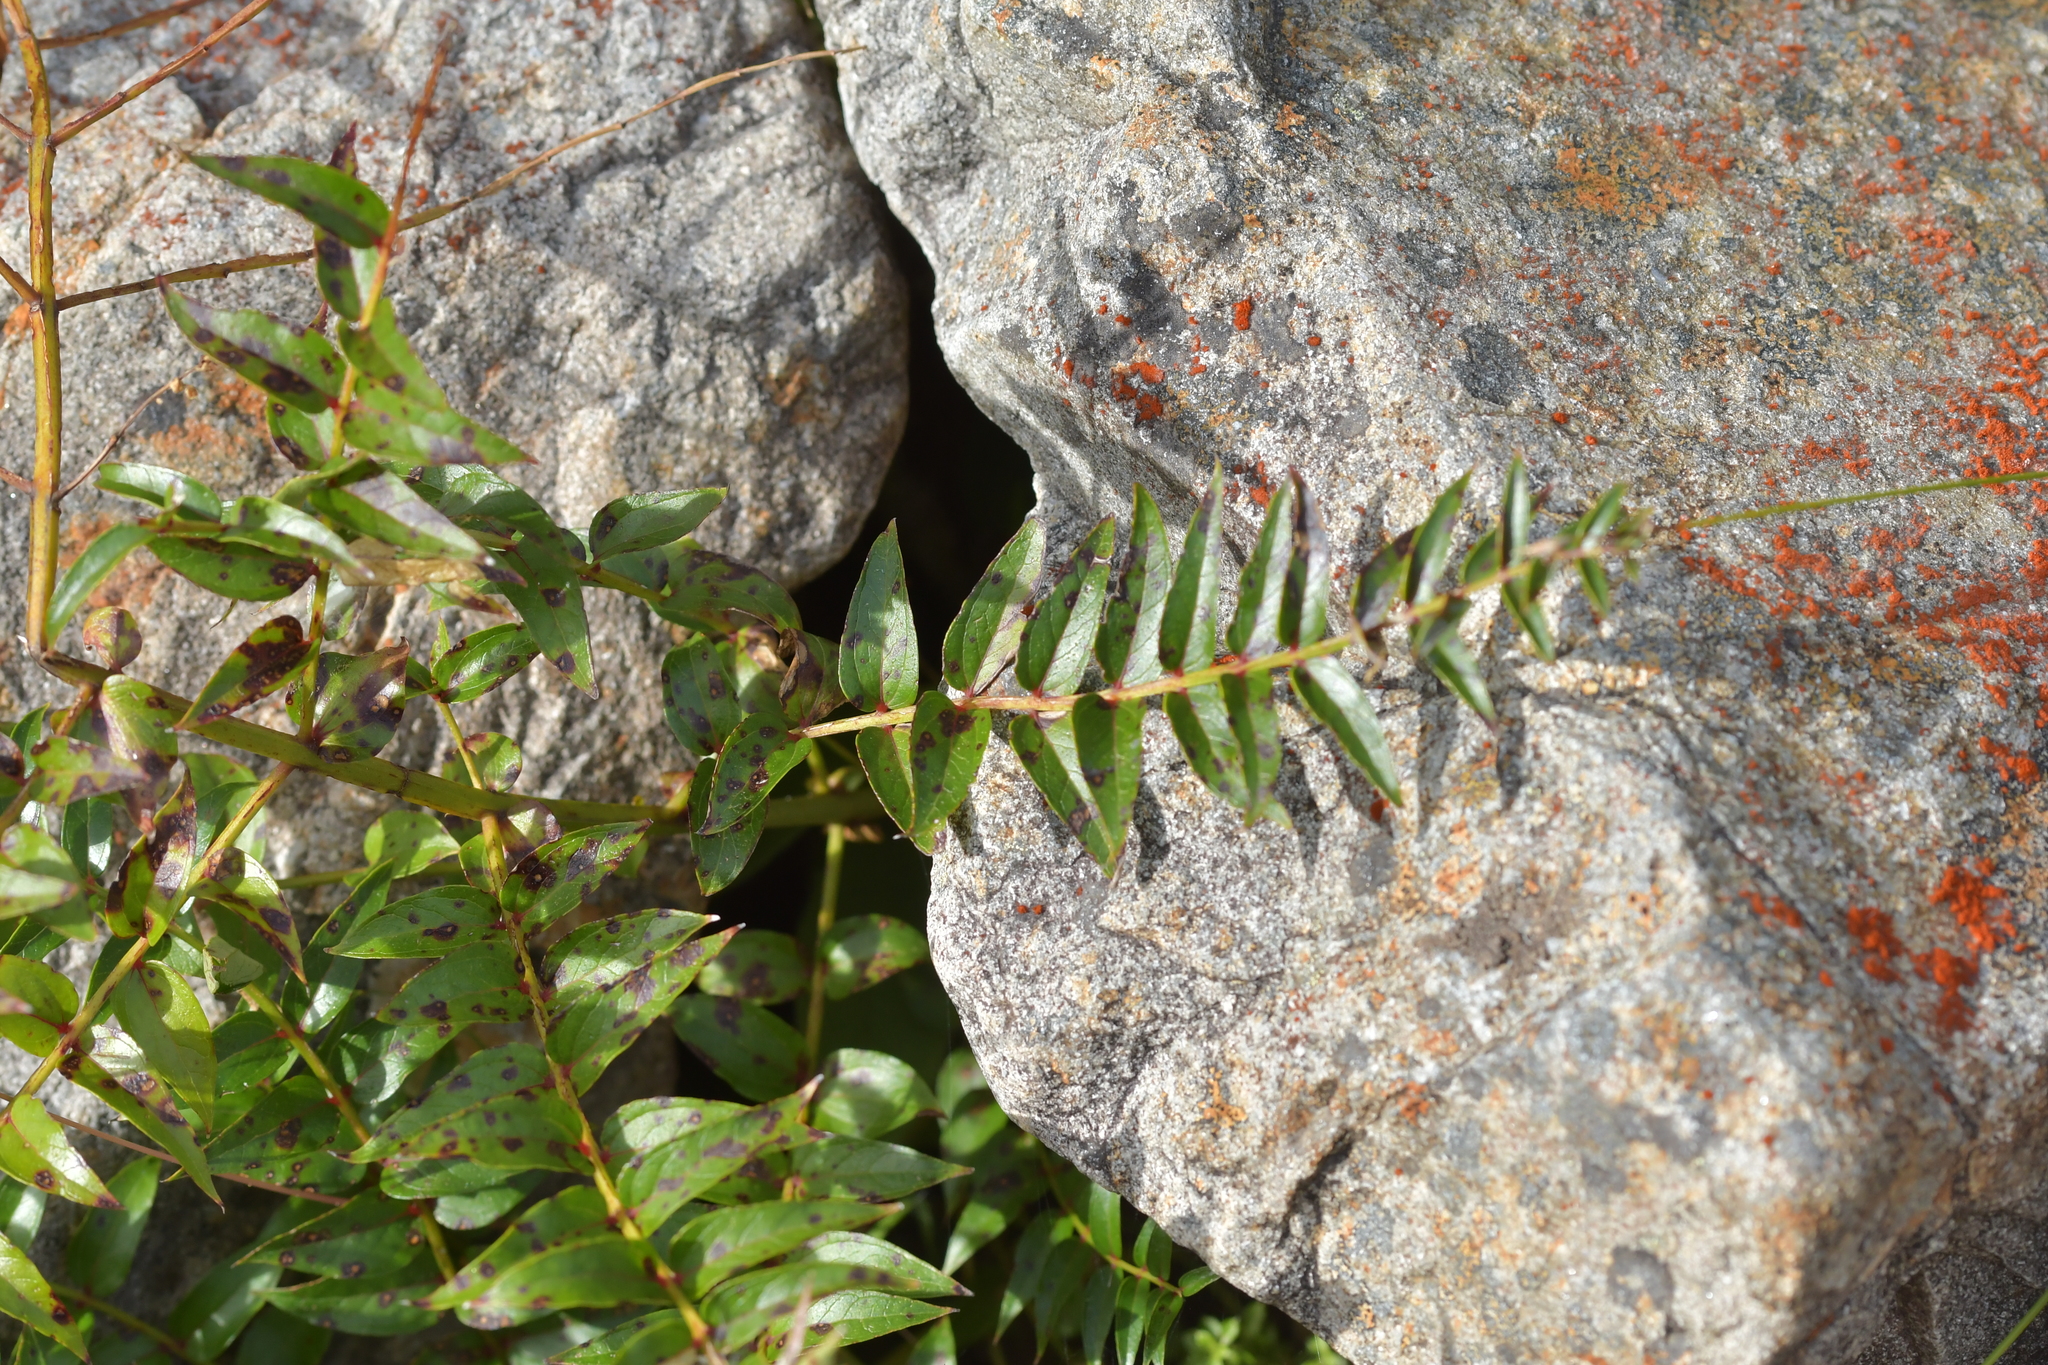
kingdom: Plantae
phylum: Tracheophyta
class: Magnoliopsida
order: Cucurbitales
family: Coriariaceae
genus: Coriaria
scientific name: Coriaria sarmentosa
